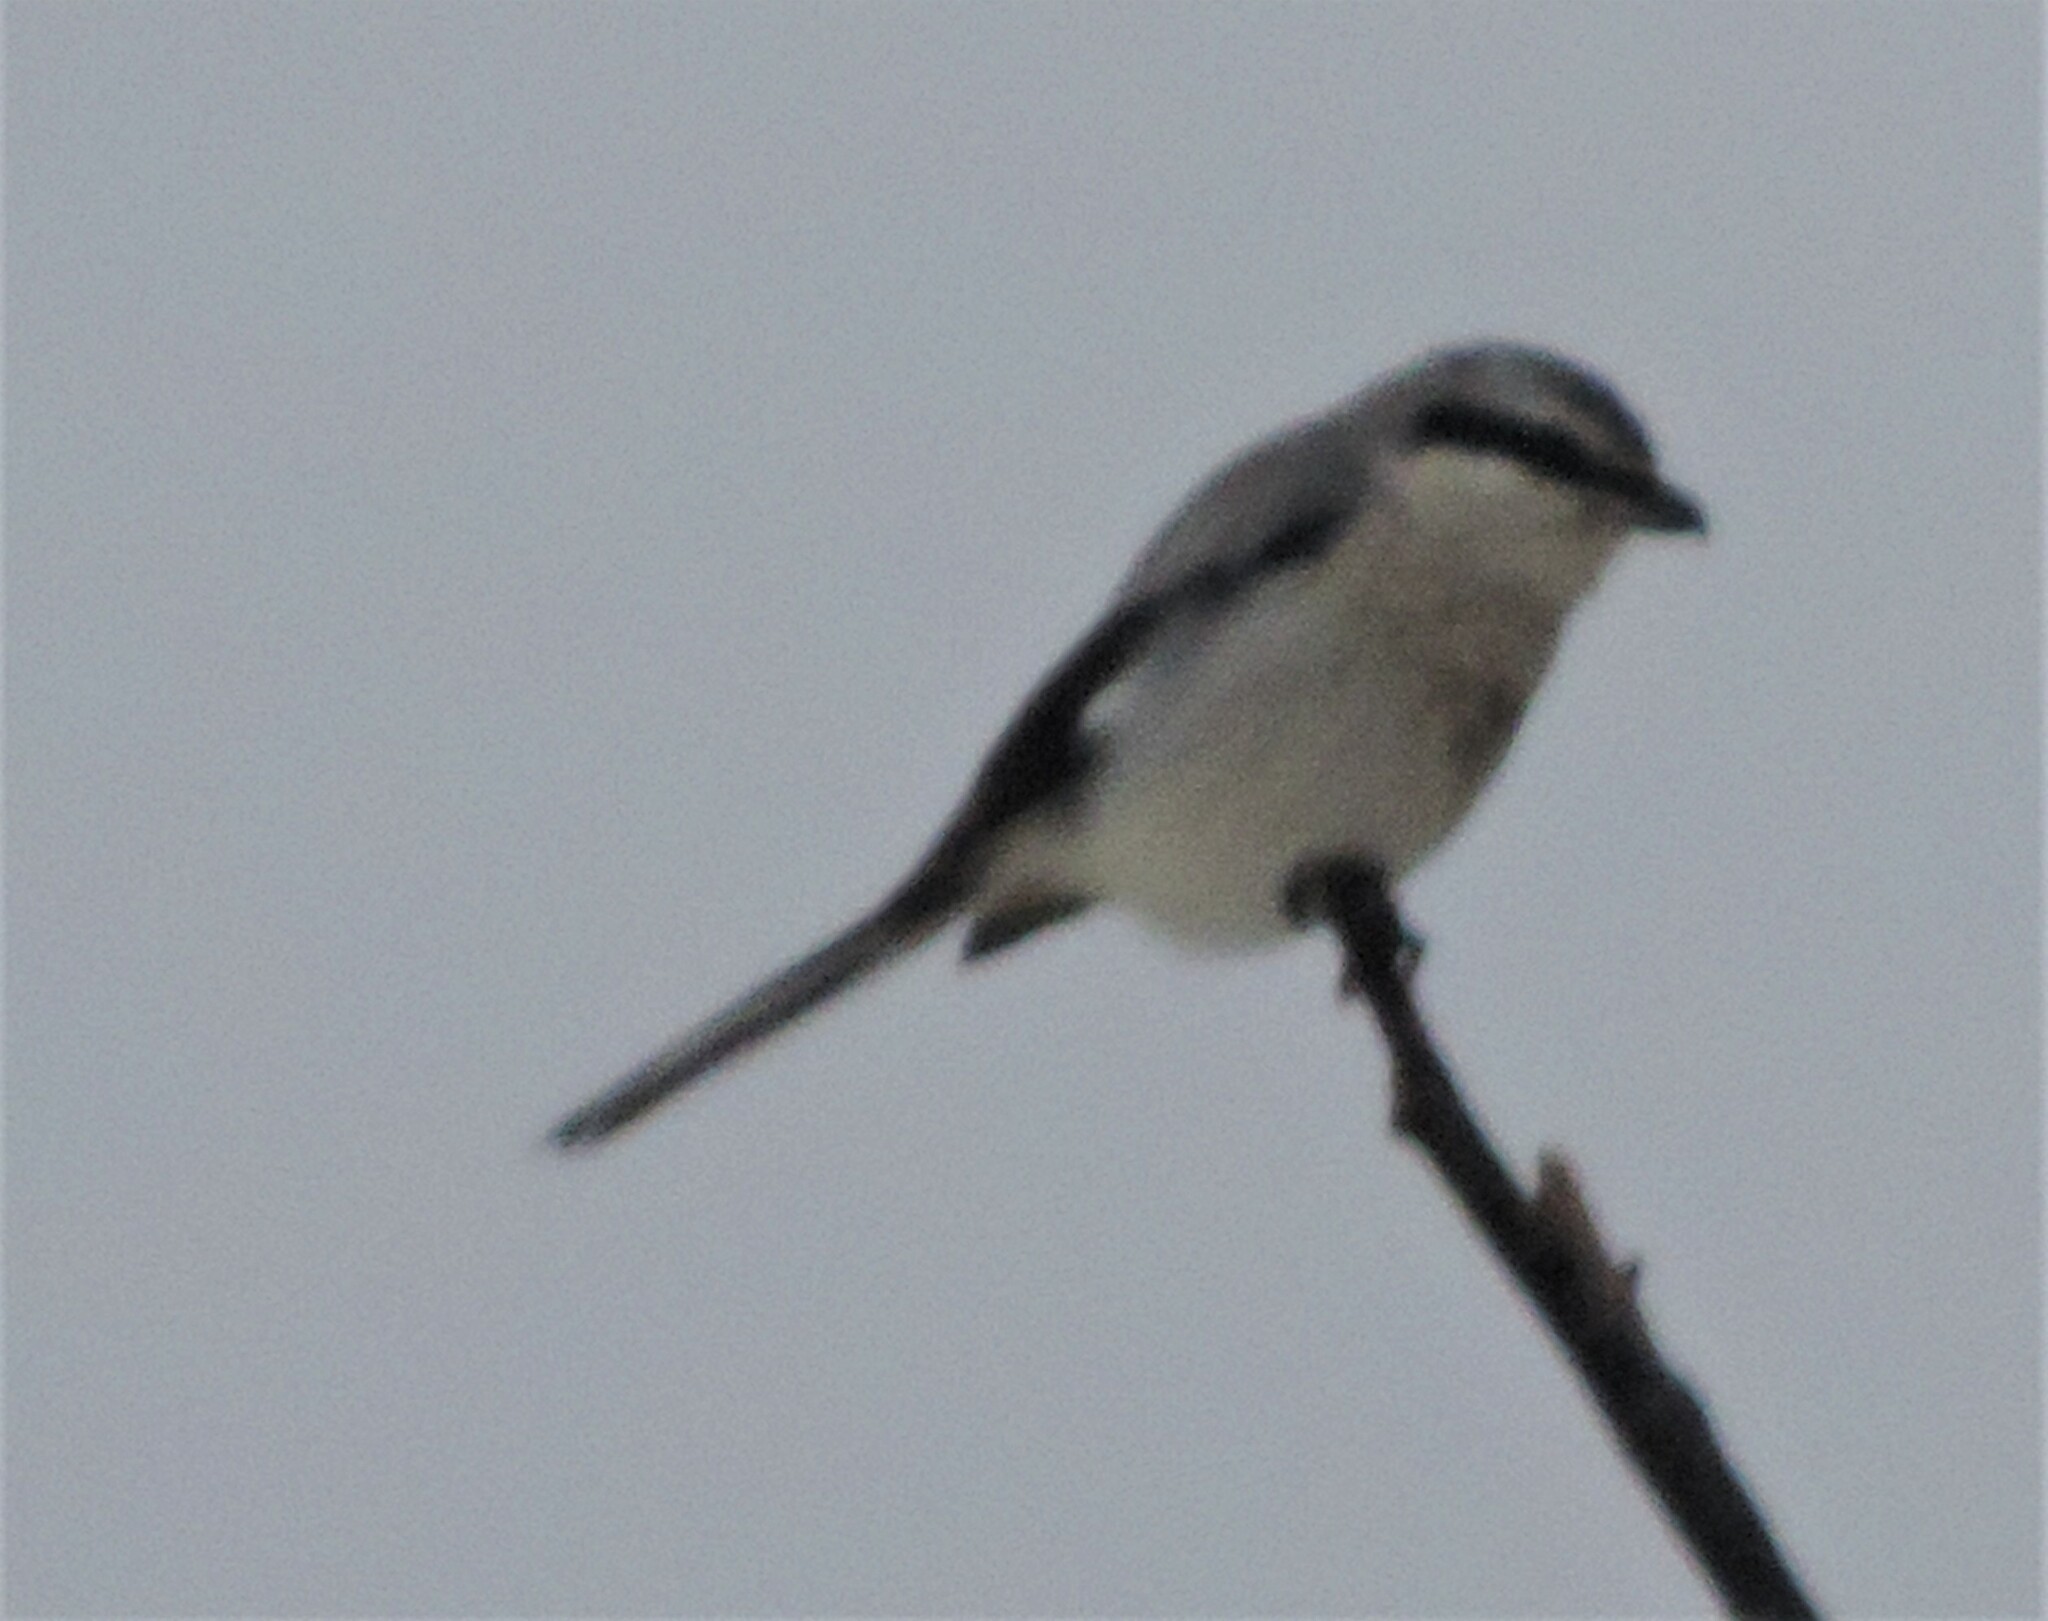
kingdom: Animalia
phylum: Chordata
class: Aves
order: Passeriformes
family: Laniidae
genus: Lanius
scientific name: Lanius borealis
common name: Northern shrike
